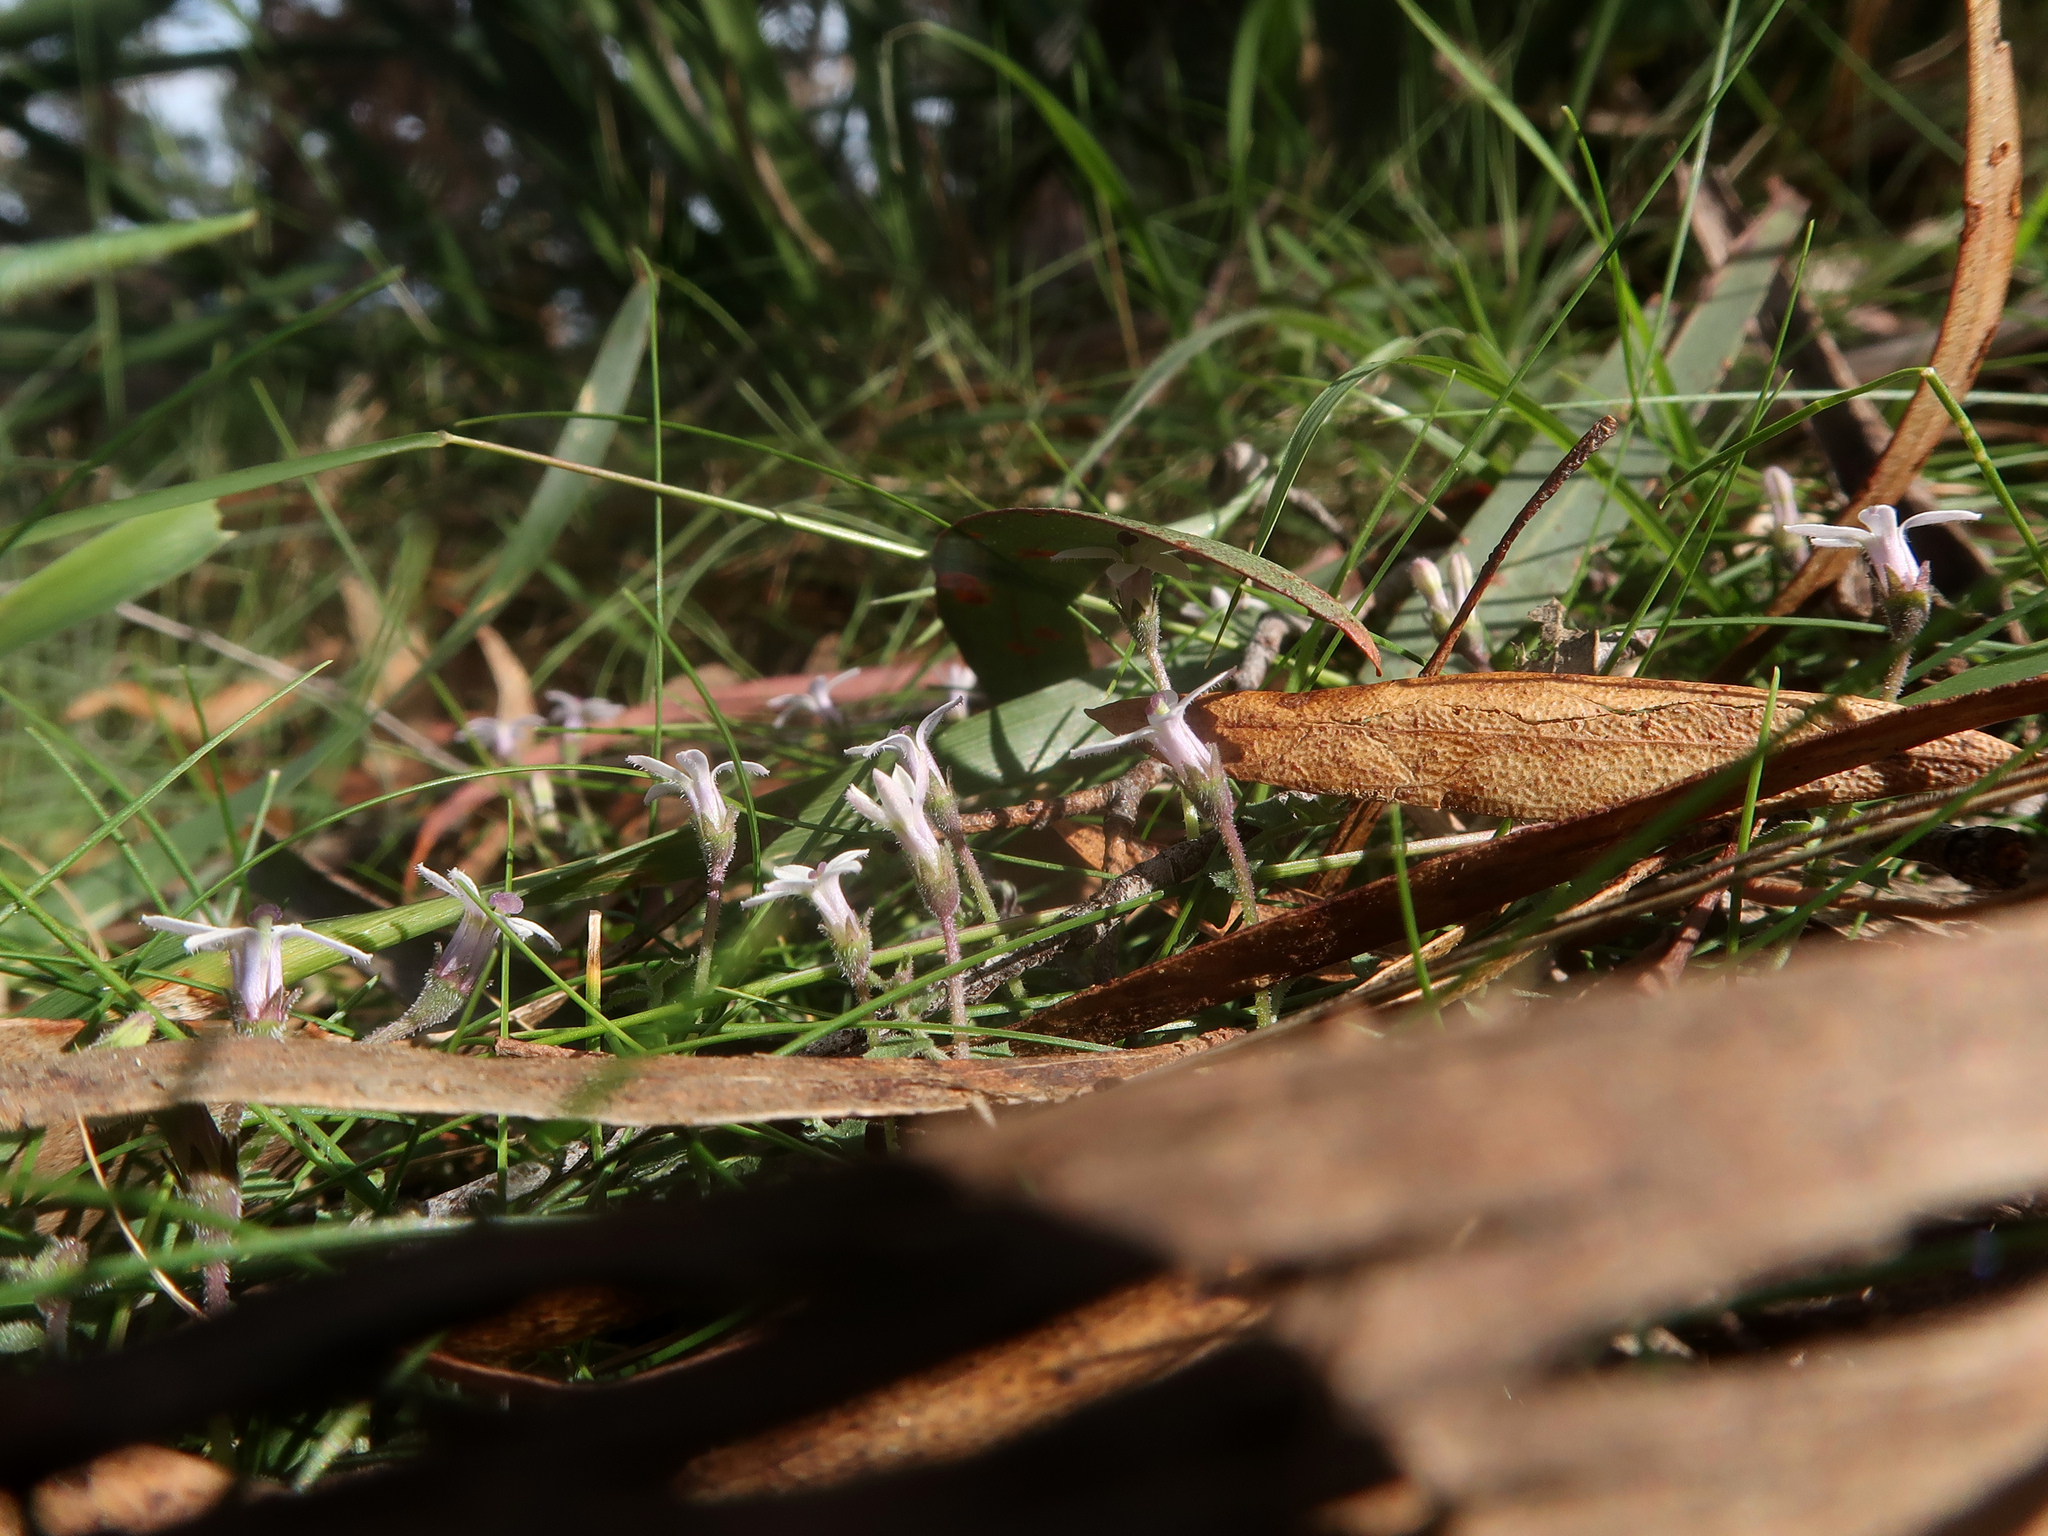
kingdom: Plantae
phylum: Tracheophyta
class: Magnoliopsida
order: Asterales
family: Campanulaceae
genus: Lobelia
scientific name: Lobelia pedunculata
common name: Matted pratia
